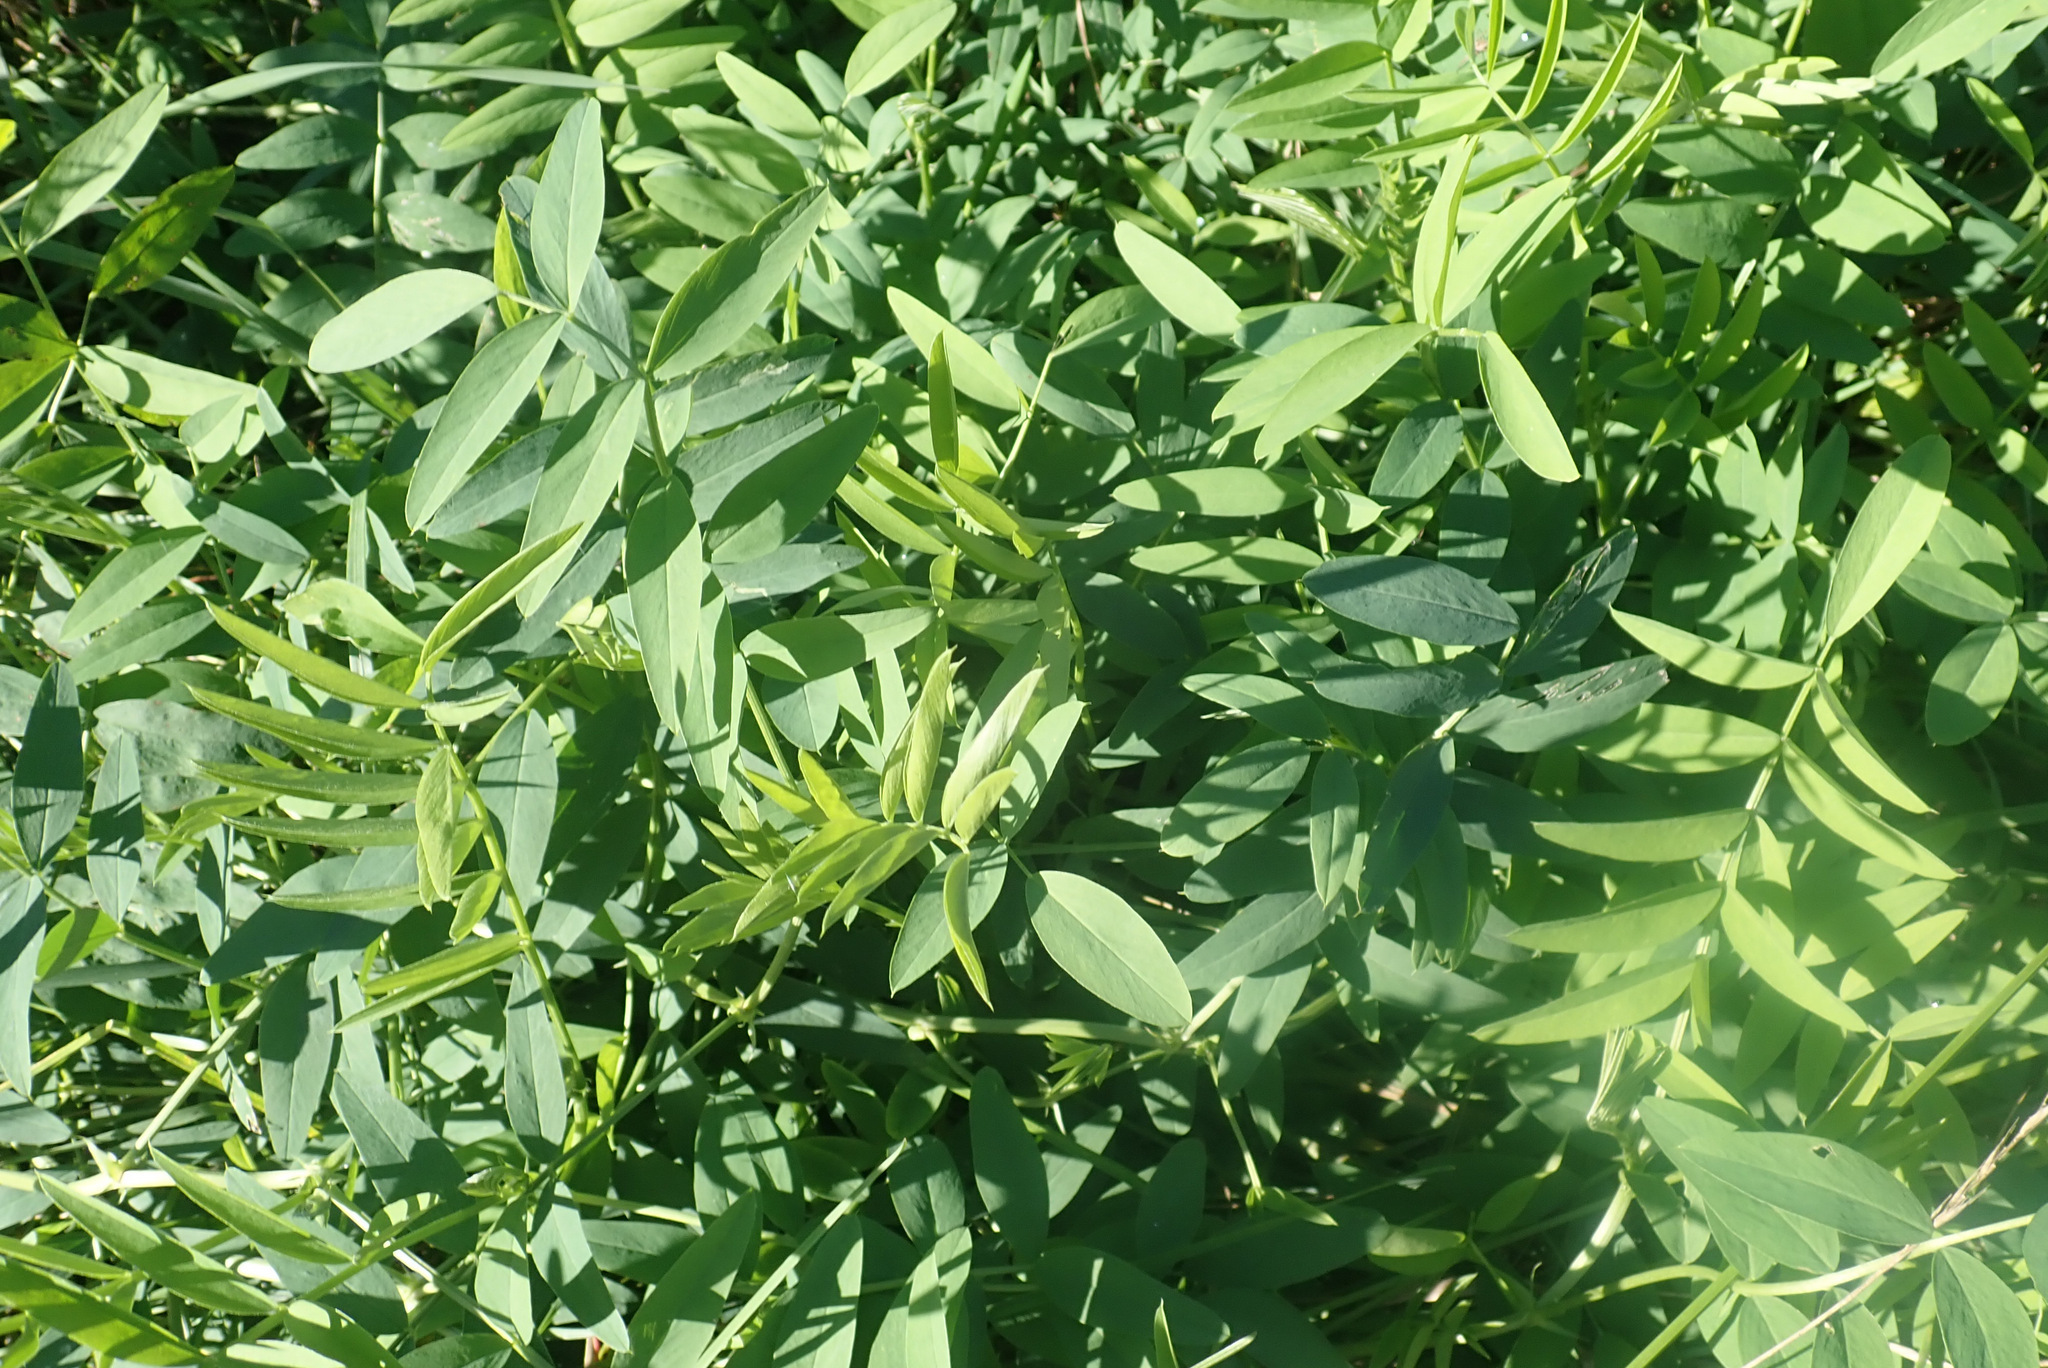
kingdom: Plantae
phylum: Tracheophyta
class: Magnoliopsida
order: Fabales
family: Fabaceae
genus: Galega
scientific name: Galega officinalis
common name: Goat's-rue
